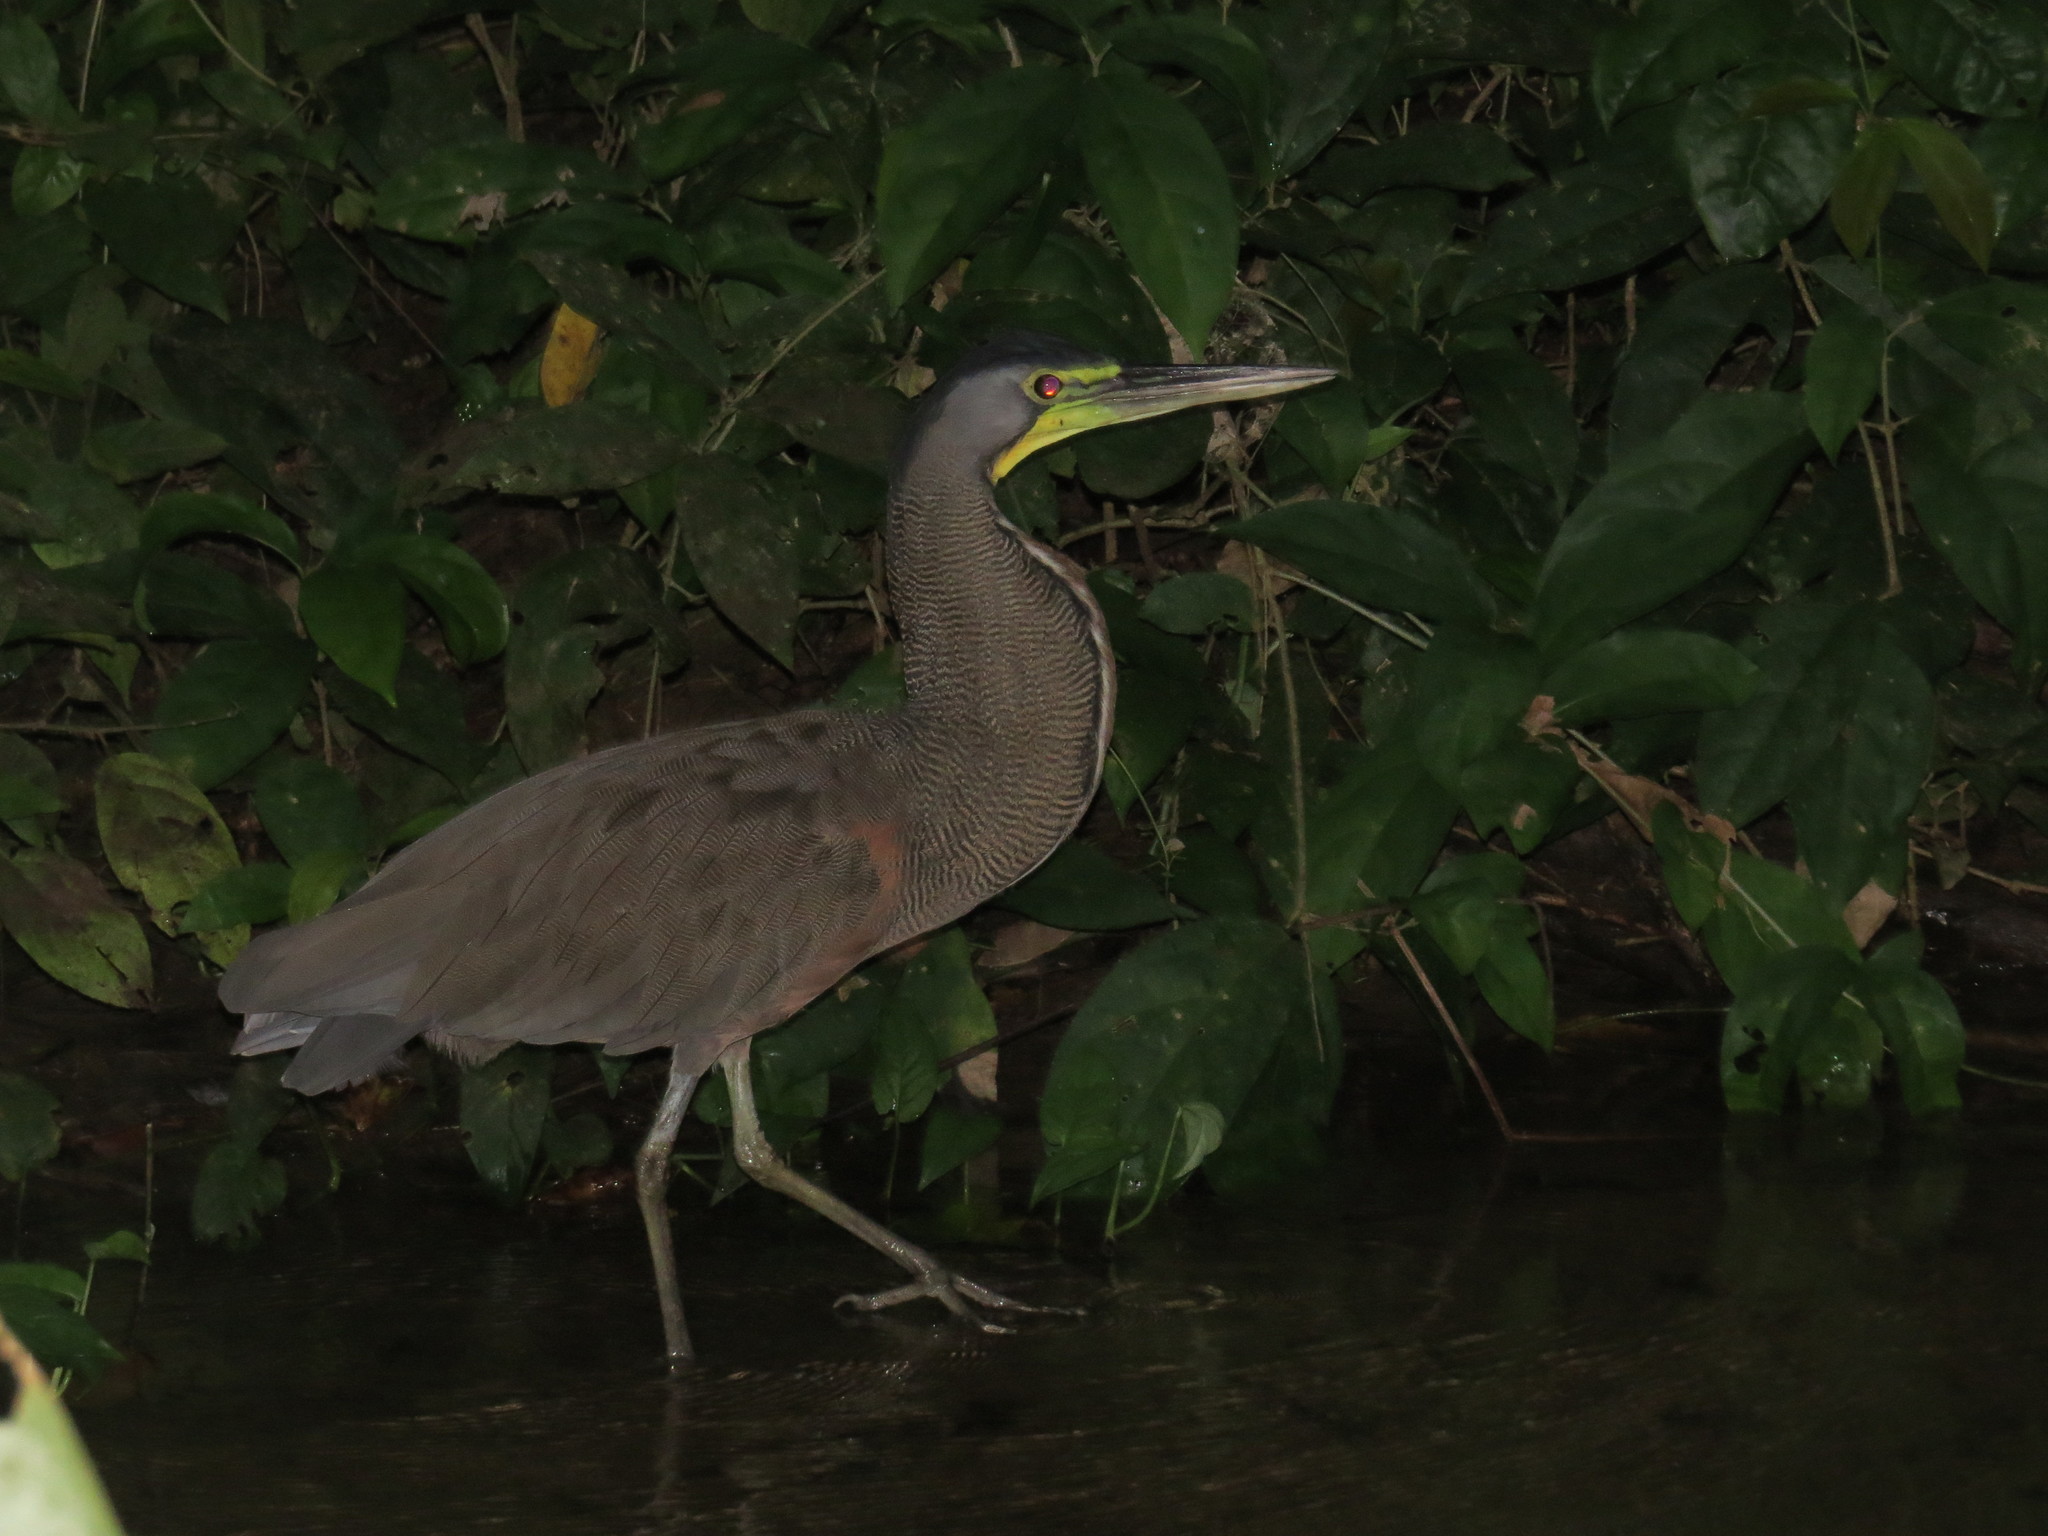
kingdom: Animalia
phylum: Chordata
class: Aves
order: Pelecaniformes
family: Ardeidae
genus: Tigrisoma
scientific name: Tigrisoma mexicanum
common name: Bare-throated tiger-heron
